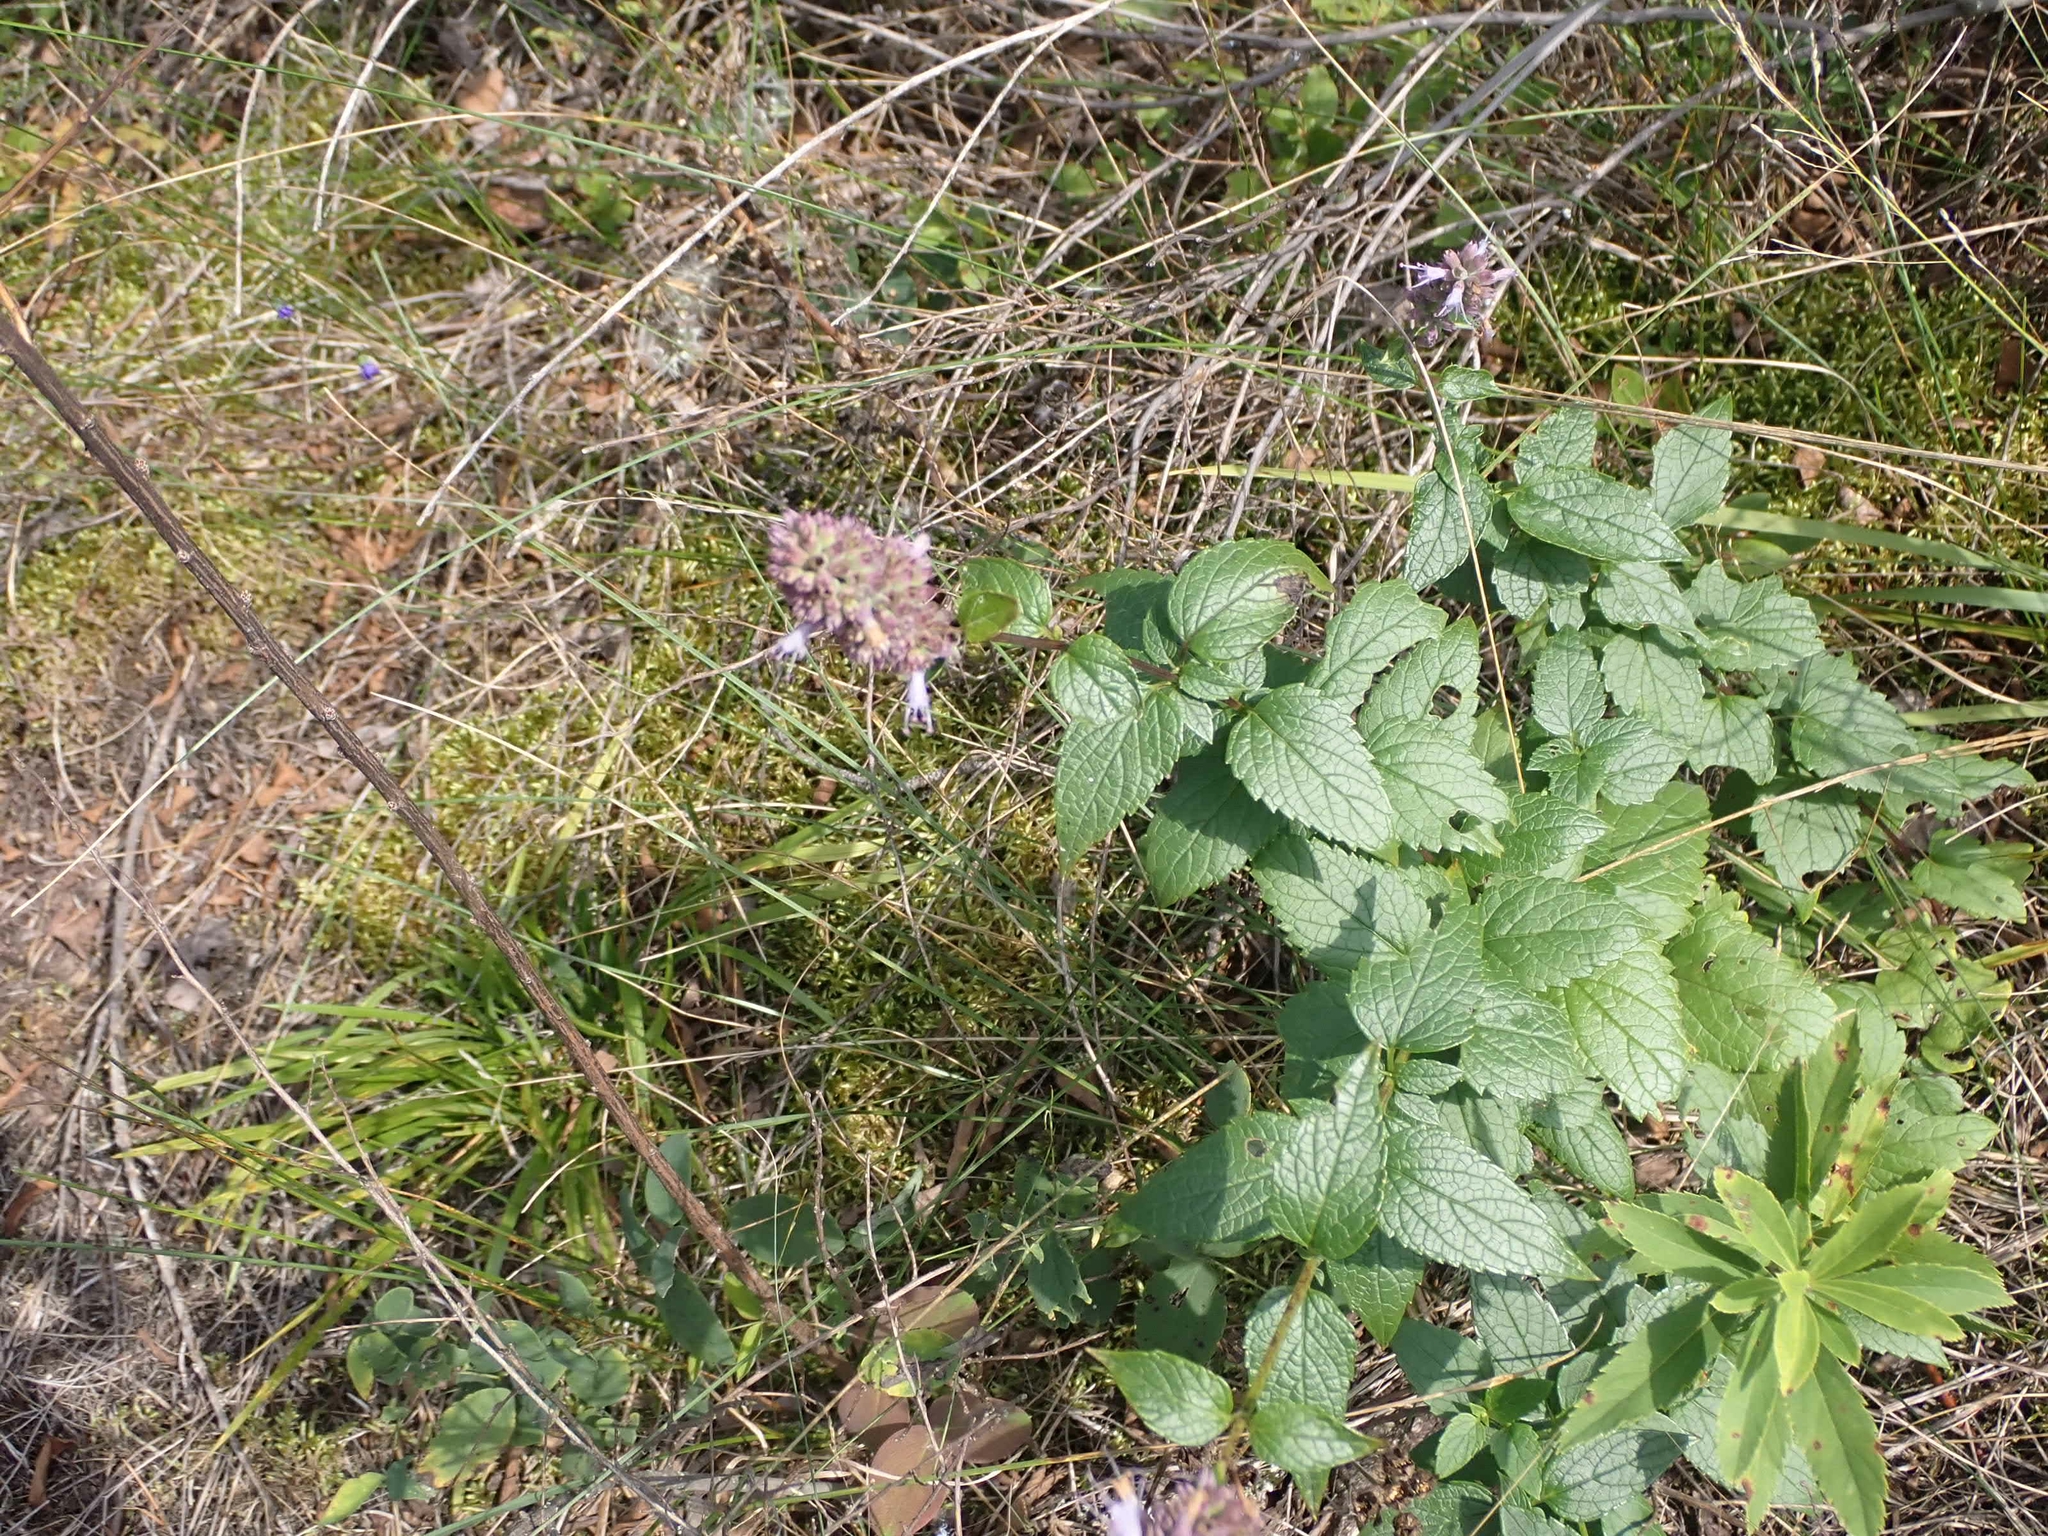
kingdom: Plantae
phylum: Tracheophyta
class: Magnoliopsida
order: Lamiales
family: Lamiaceae
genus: Agastache
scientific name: Agastache foeniculum
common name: Anise hyssop
